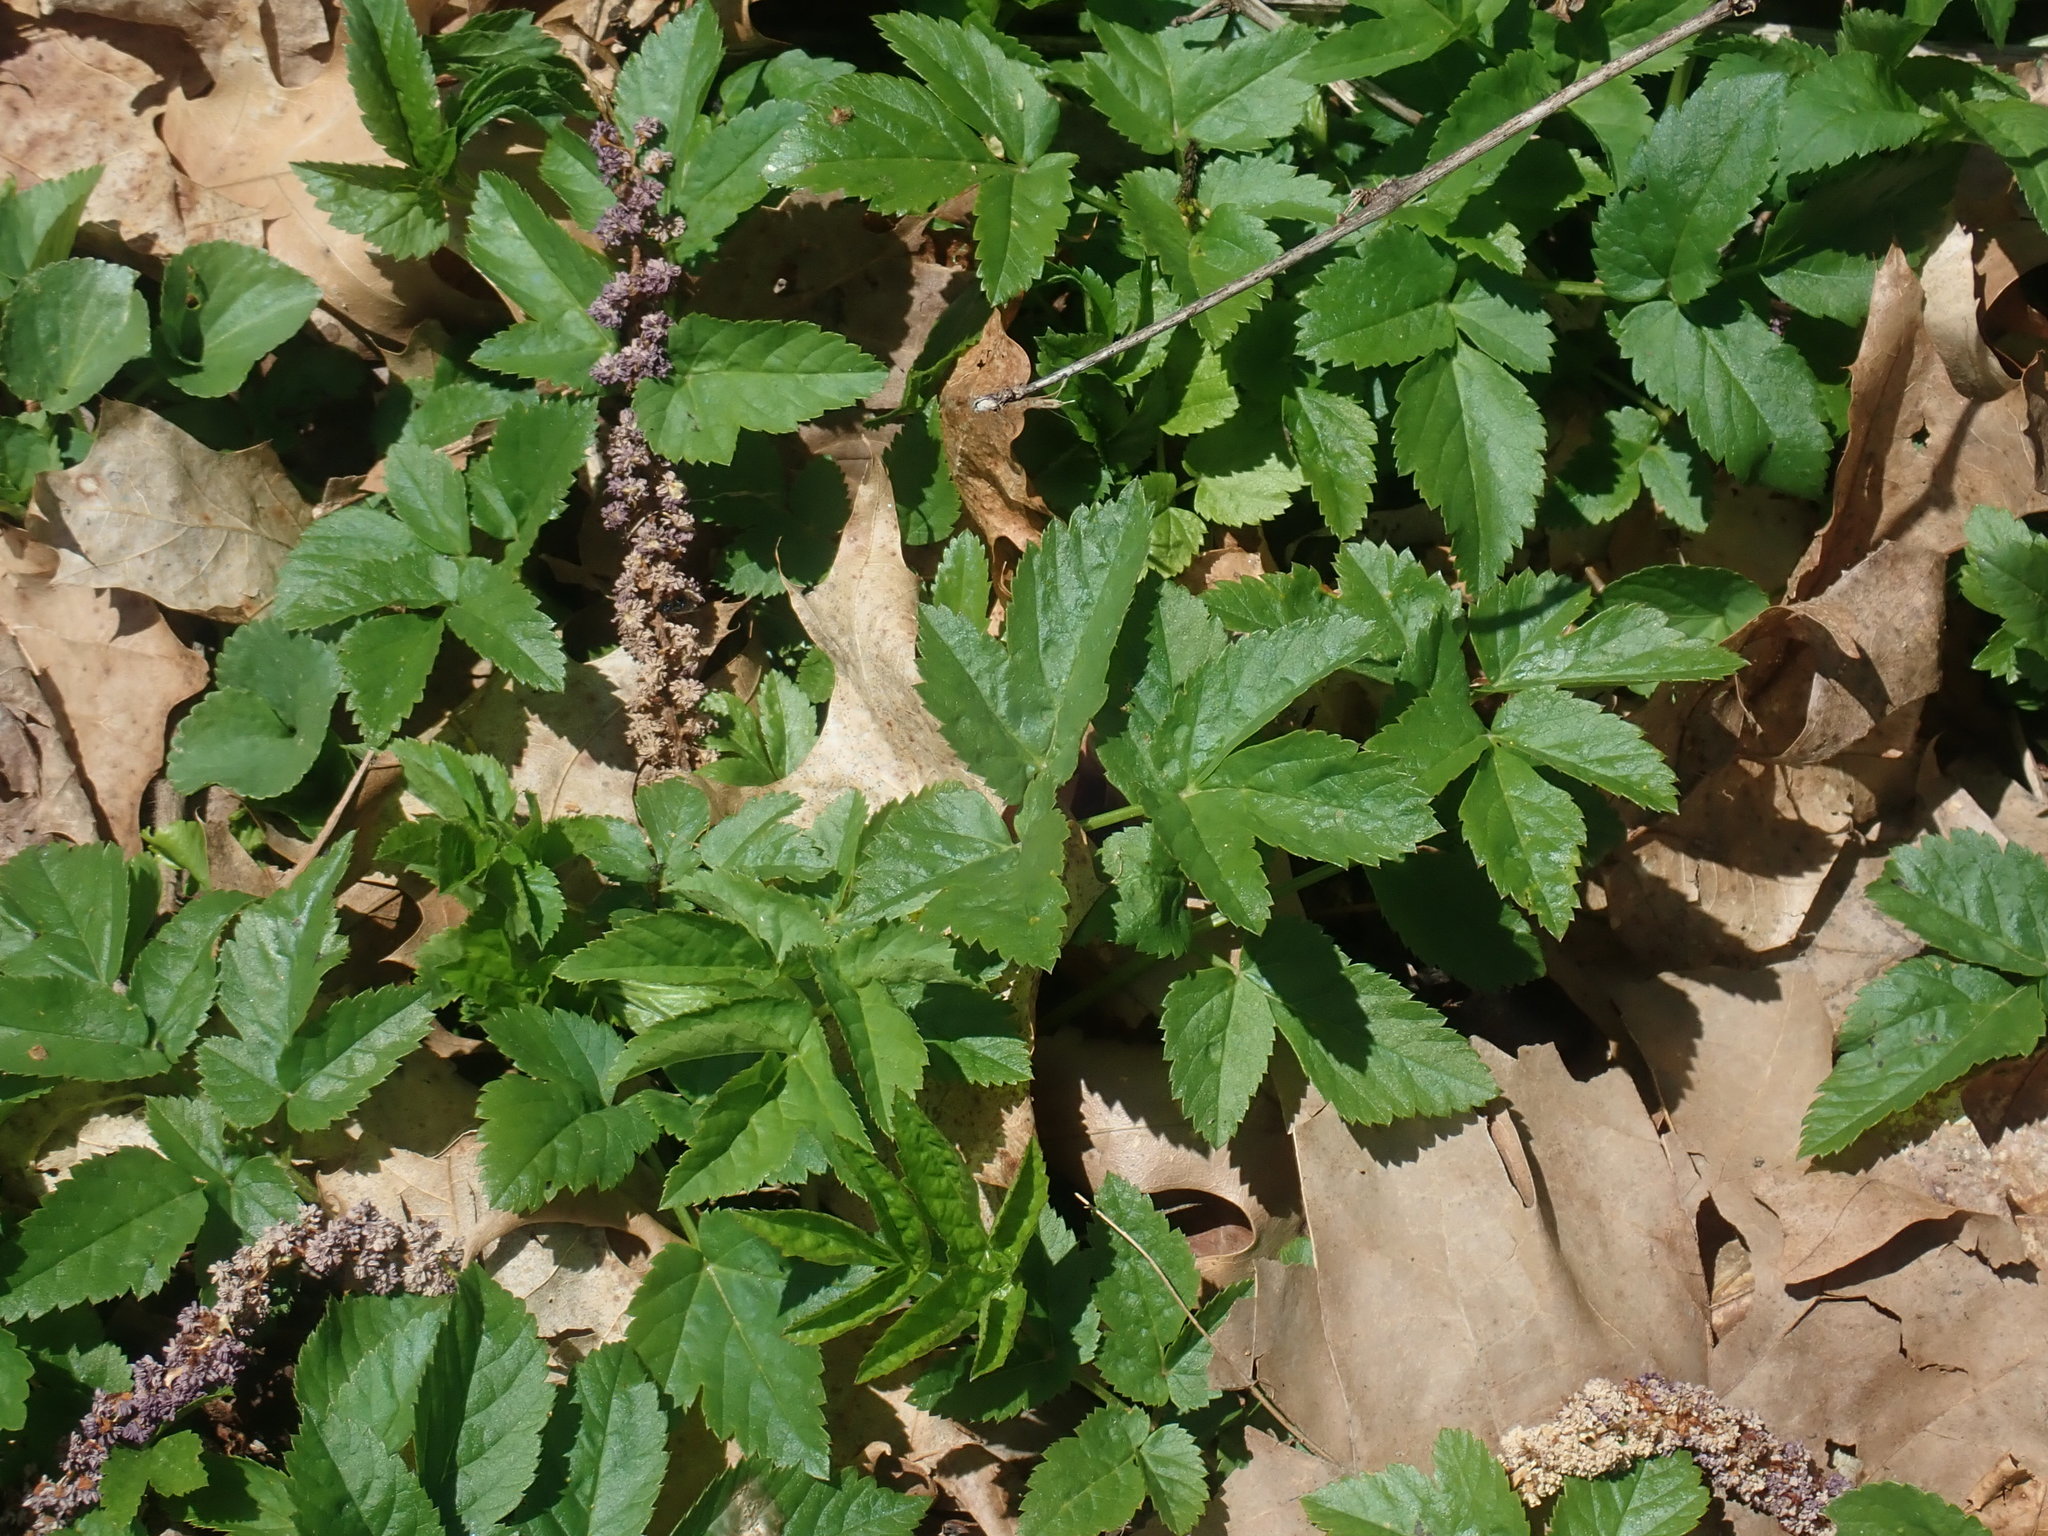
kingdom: Plantae
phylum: Tracheophyta
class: Magnoliopsida
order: Apiales
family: Apiaceae
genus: Aegopodium
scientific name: Aegopodium podagraria
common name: Ground-elder
